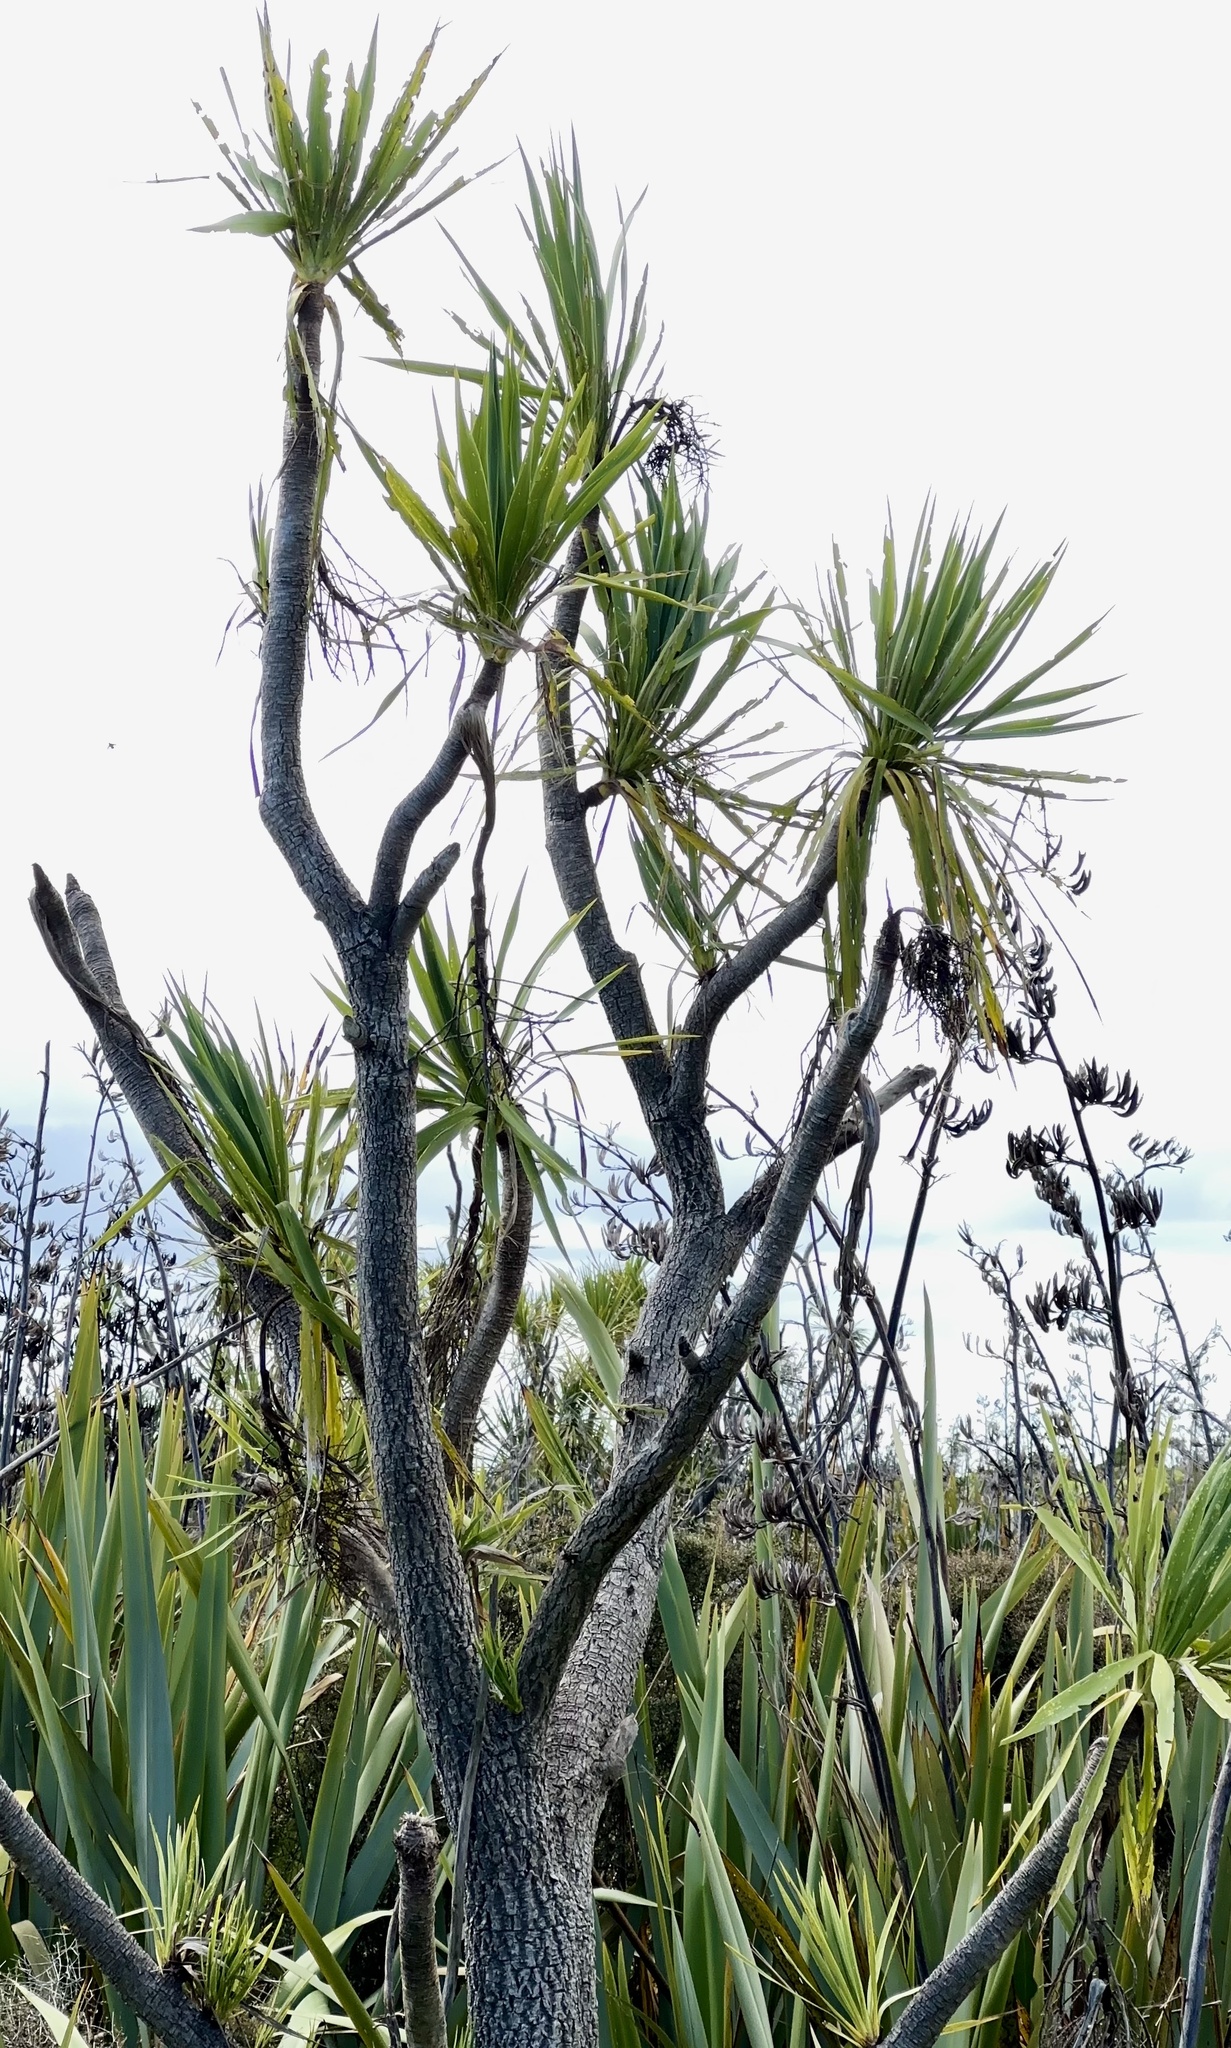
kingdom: Plantae
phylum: Tracheophyta
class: Liliopsida
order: Asparagales
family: Asparagaceae
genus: Cordyline
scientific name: Cordyline australis
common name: Cabbage-palm
